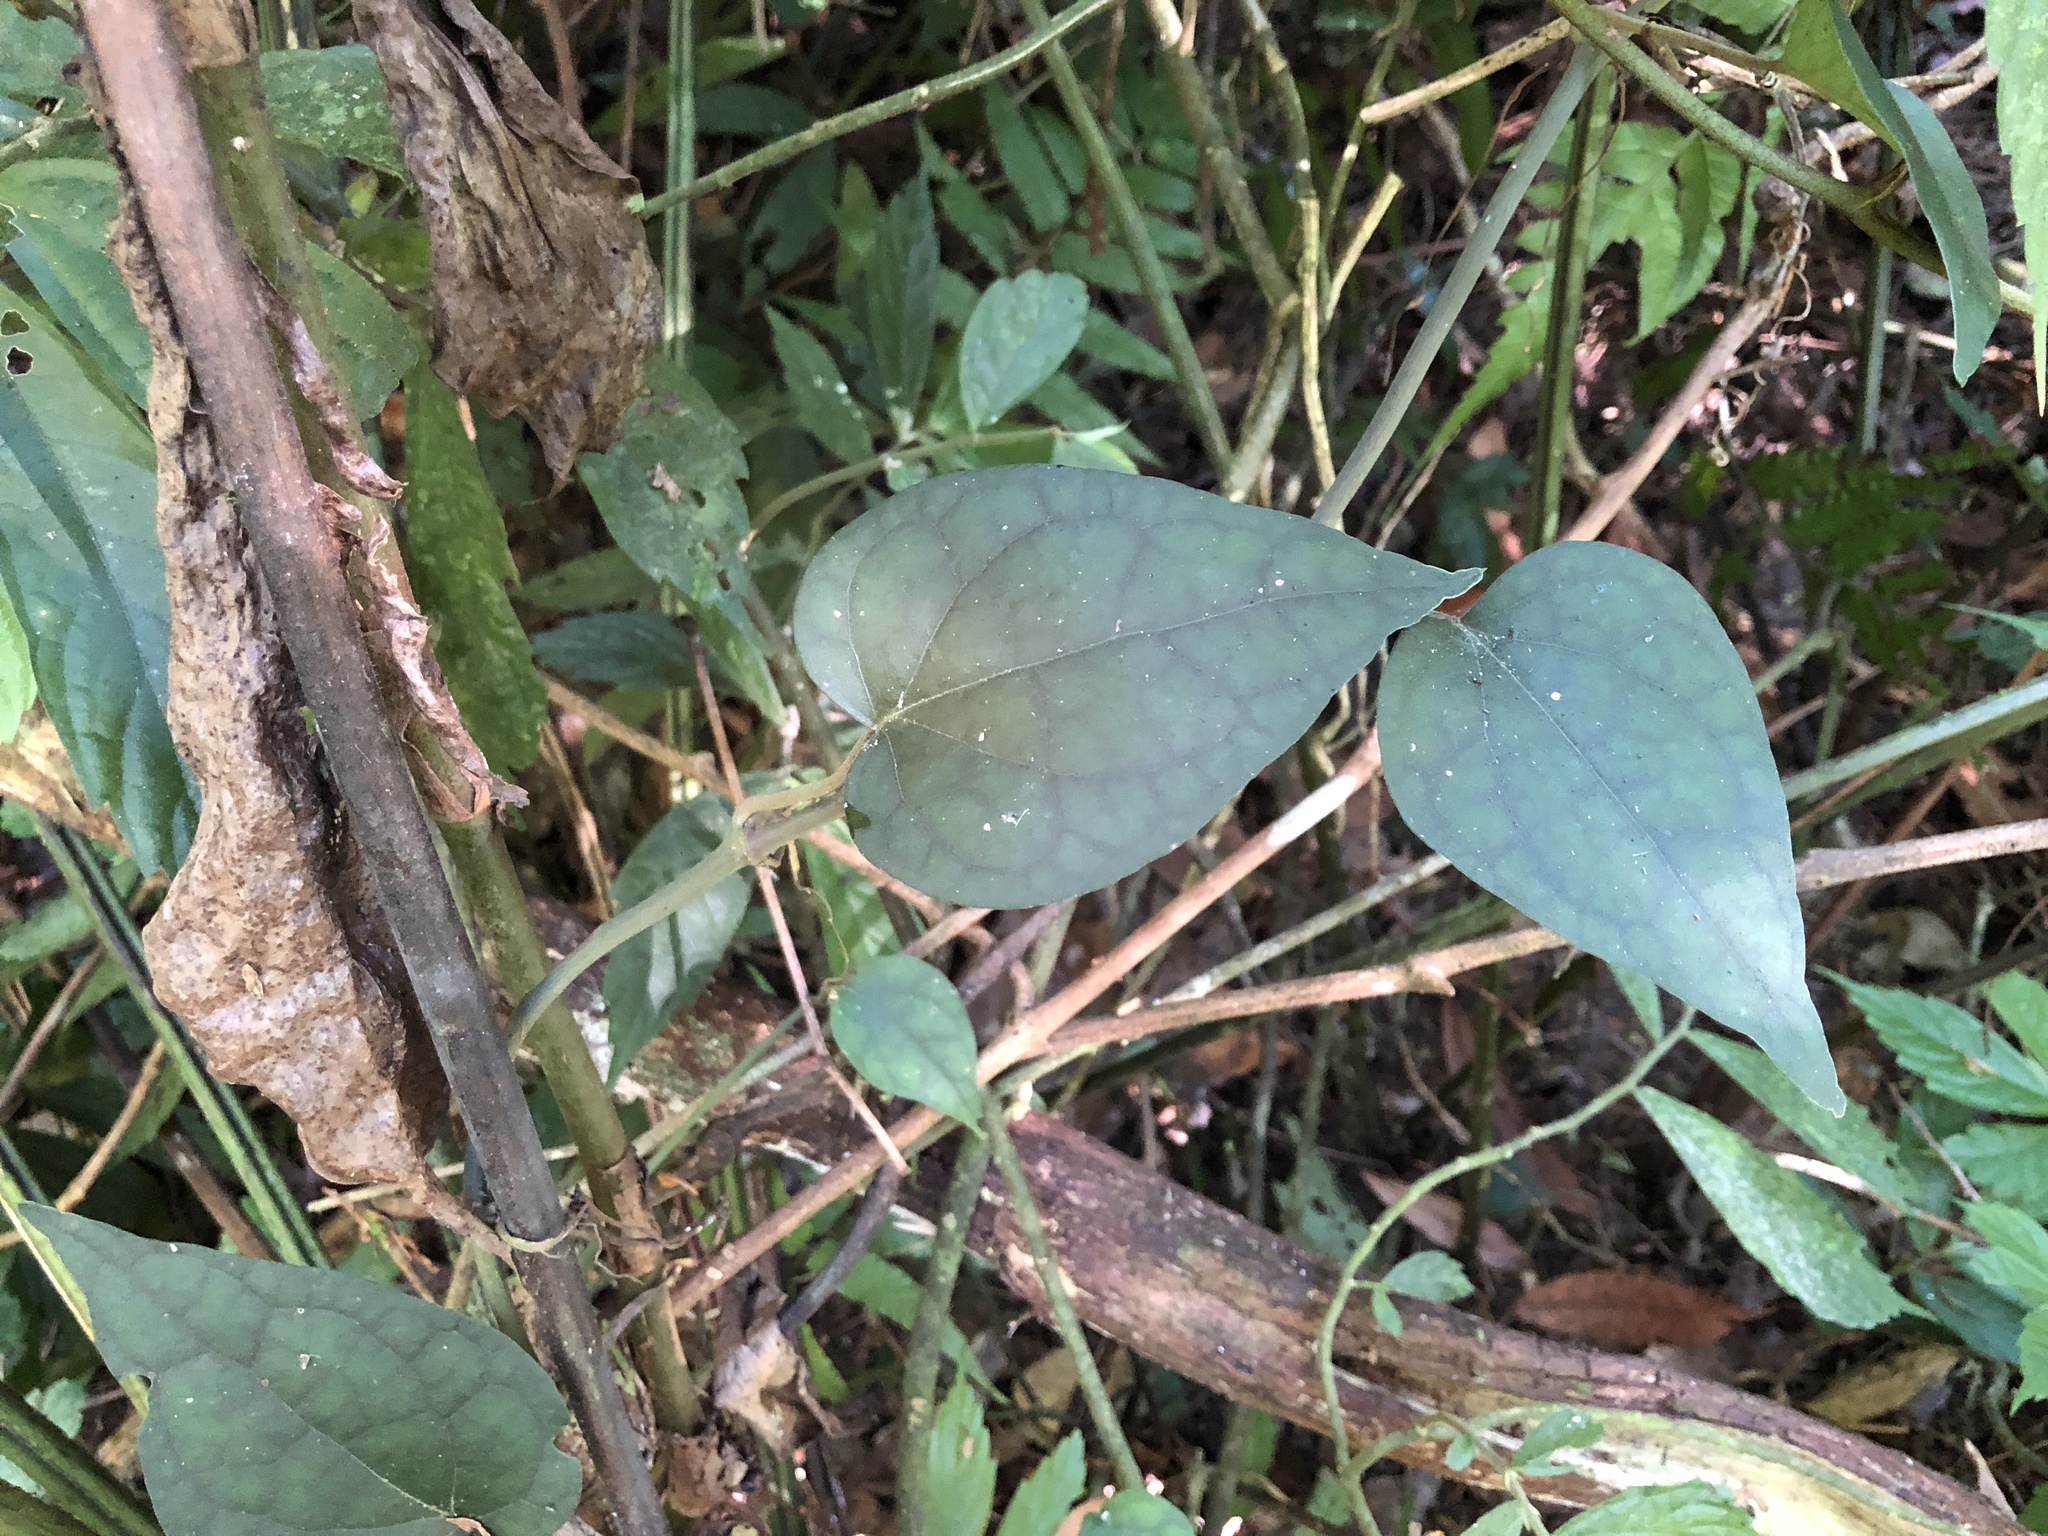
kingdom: Plantae
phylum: Tracheophyta
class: Magnoliopsida
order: Piperales
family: Piperaceae
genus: Piper
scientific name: Piper kadsura
